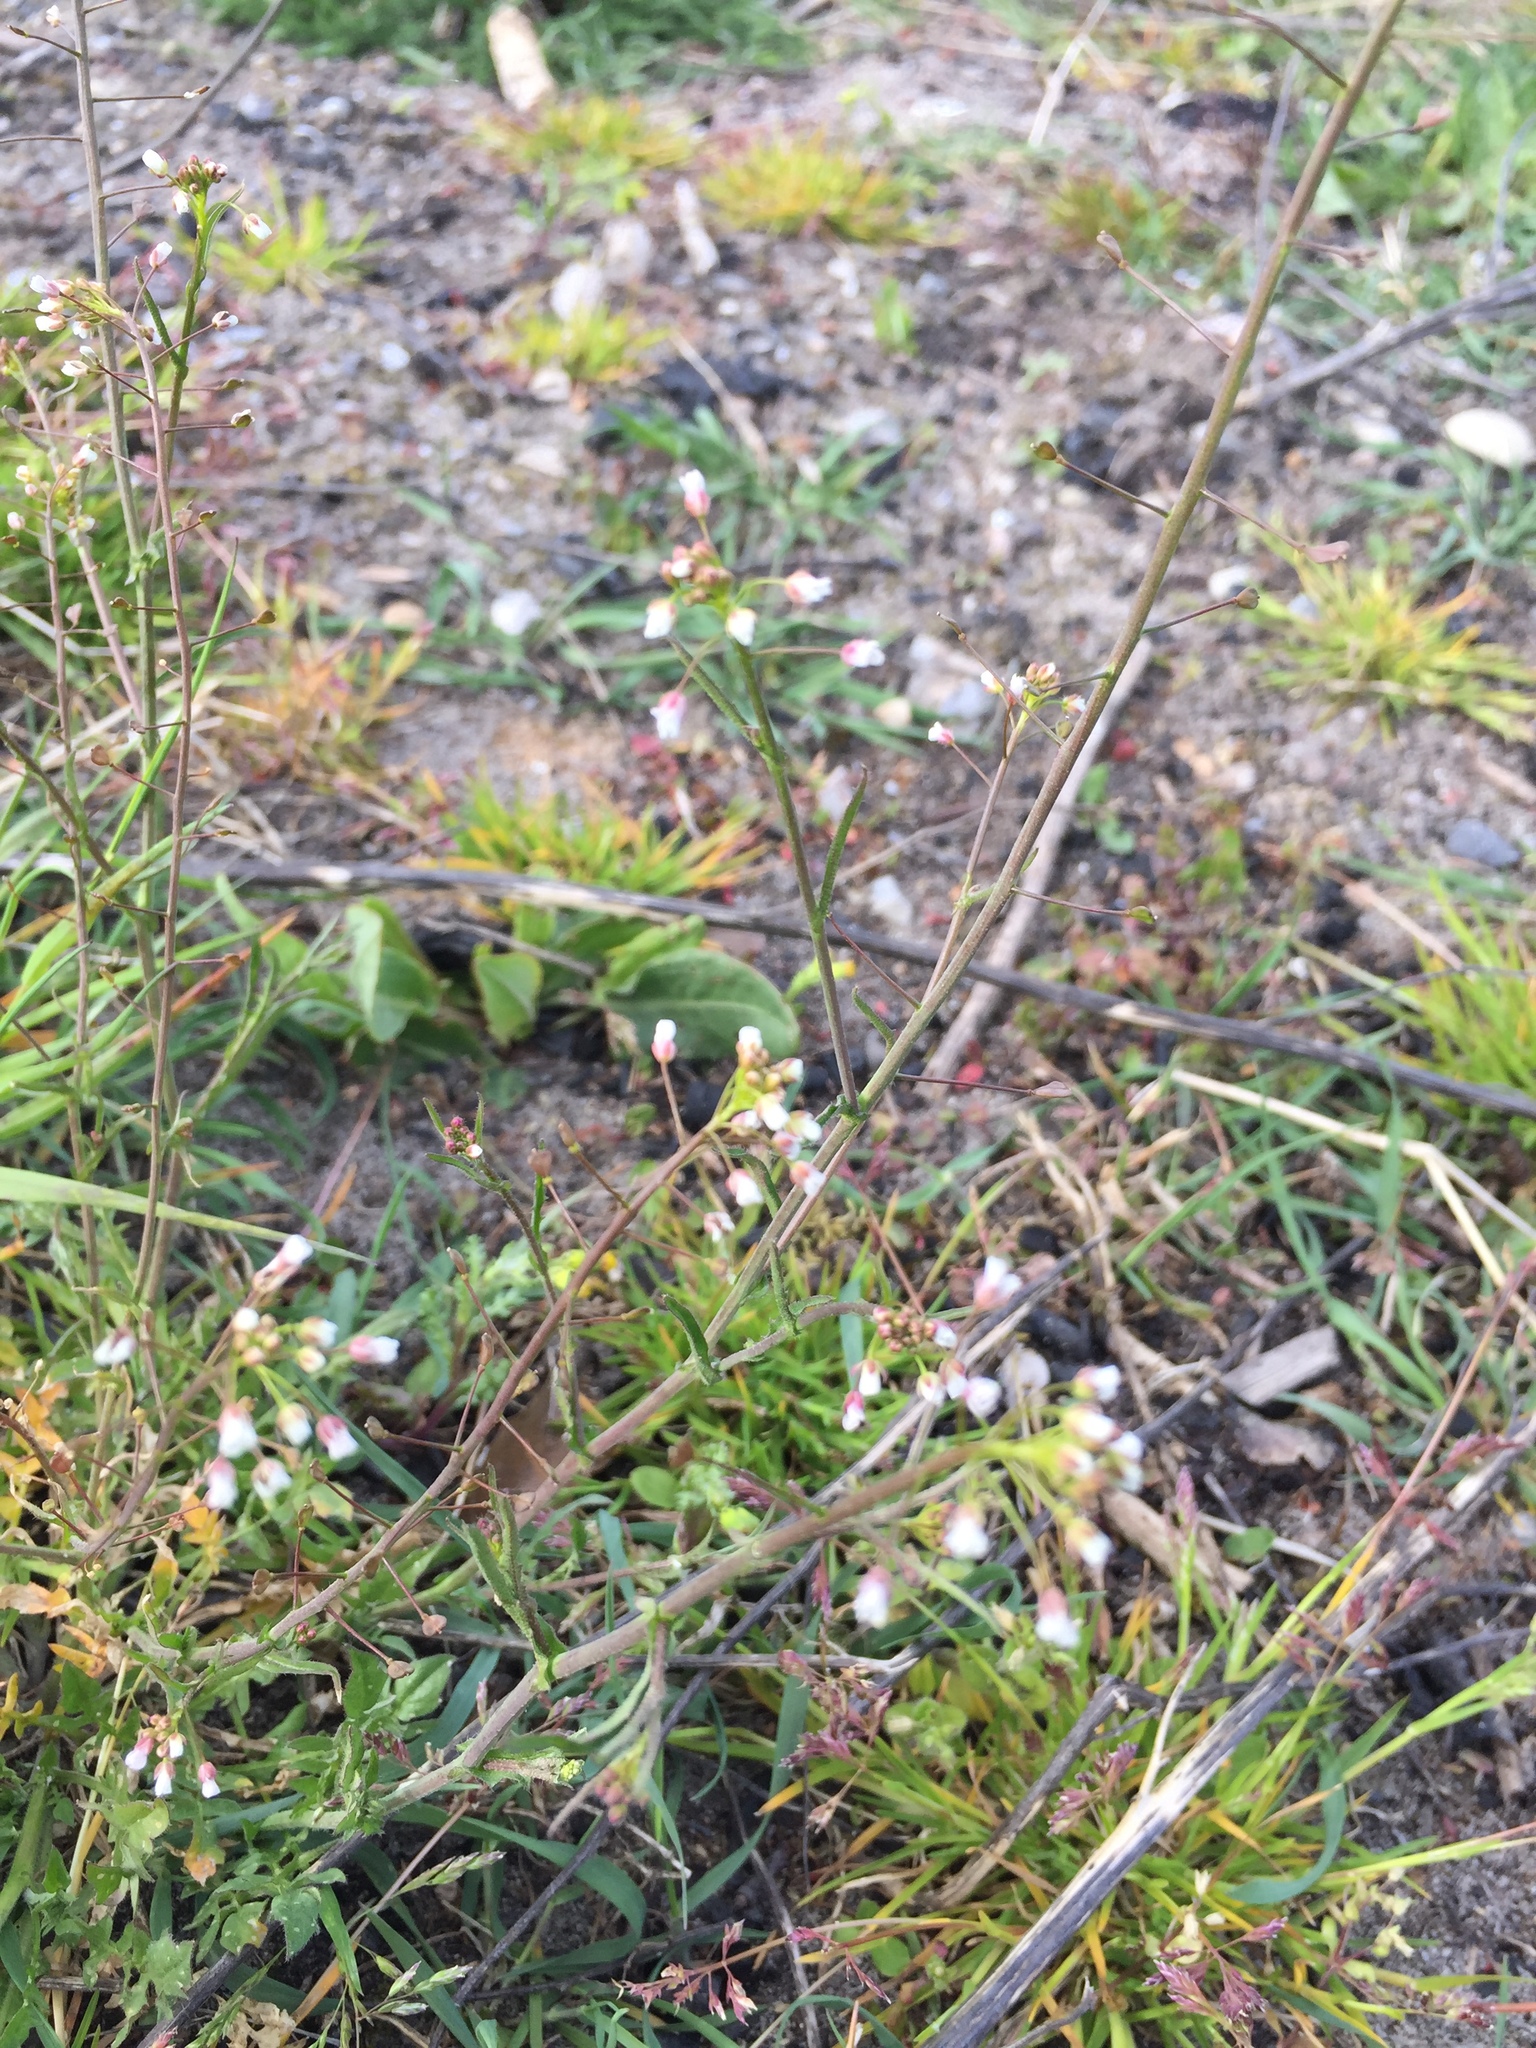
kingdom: Plantae
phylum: Tracheophyta
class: Magnoliopsida
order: Brassicales
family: Brassicaceae
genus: Capsella
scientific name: Capsella bursa-pastoris
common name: Shepherd's purse
